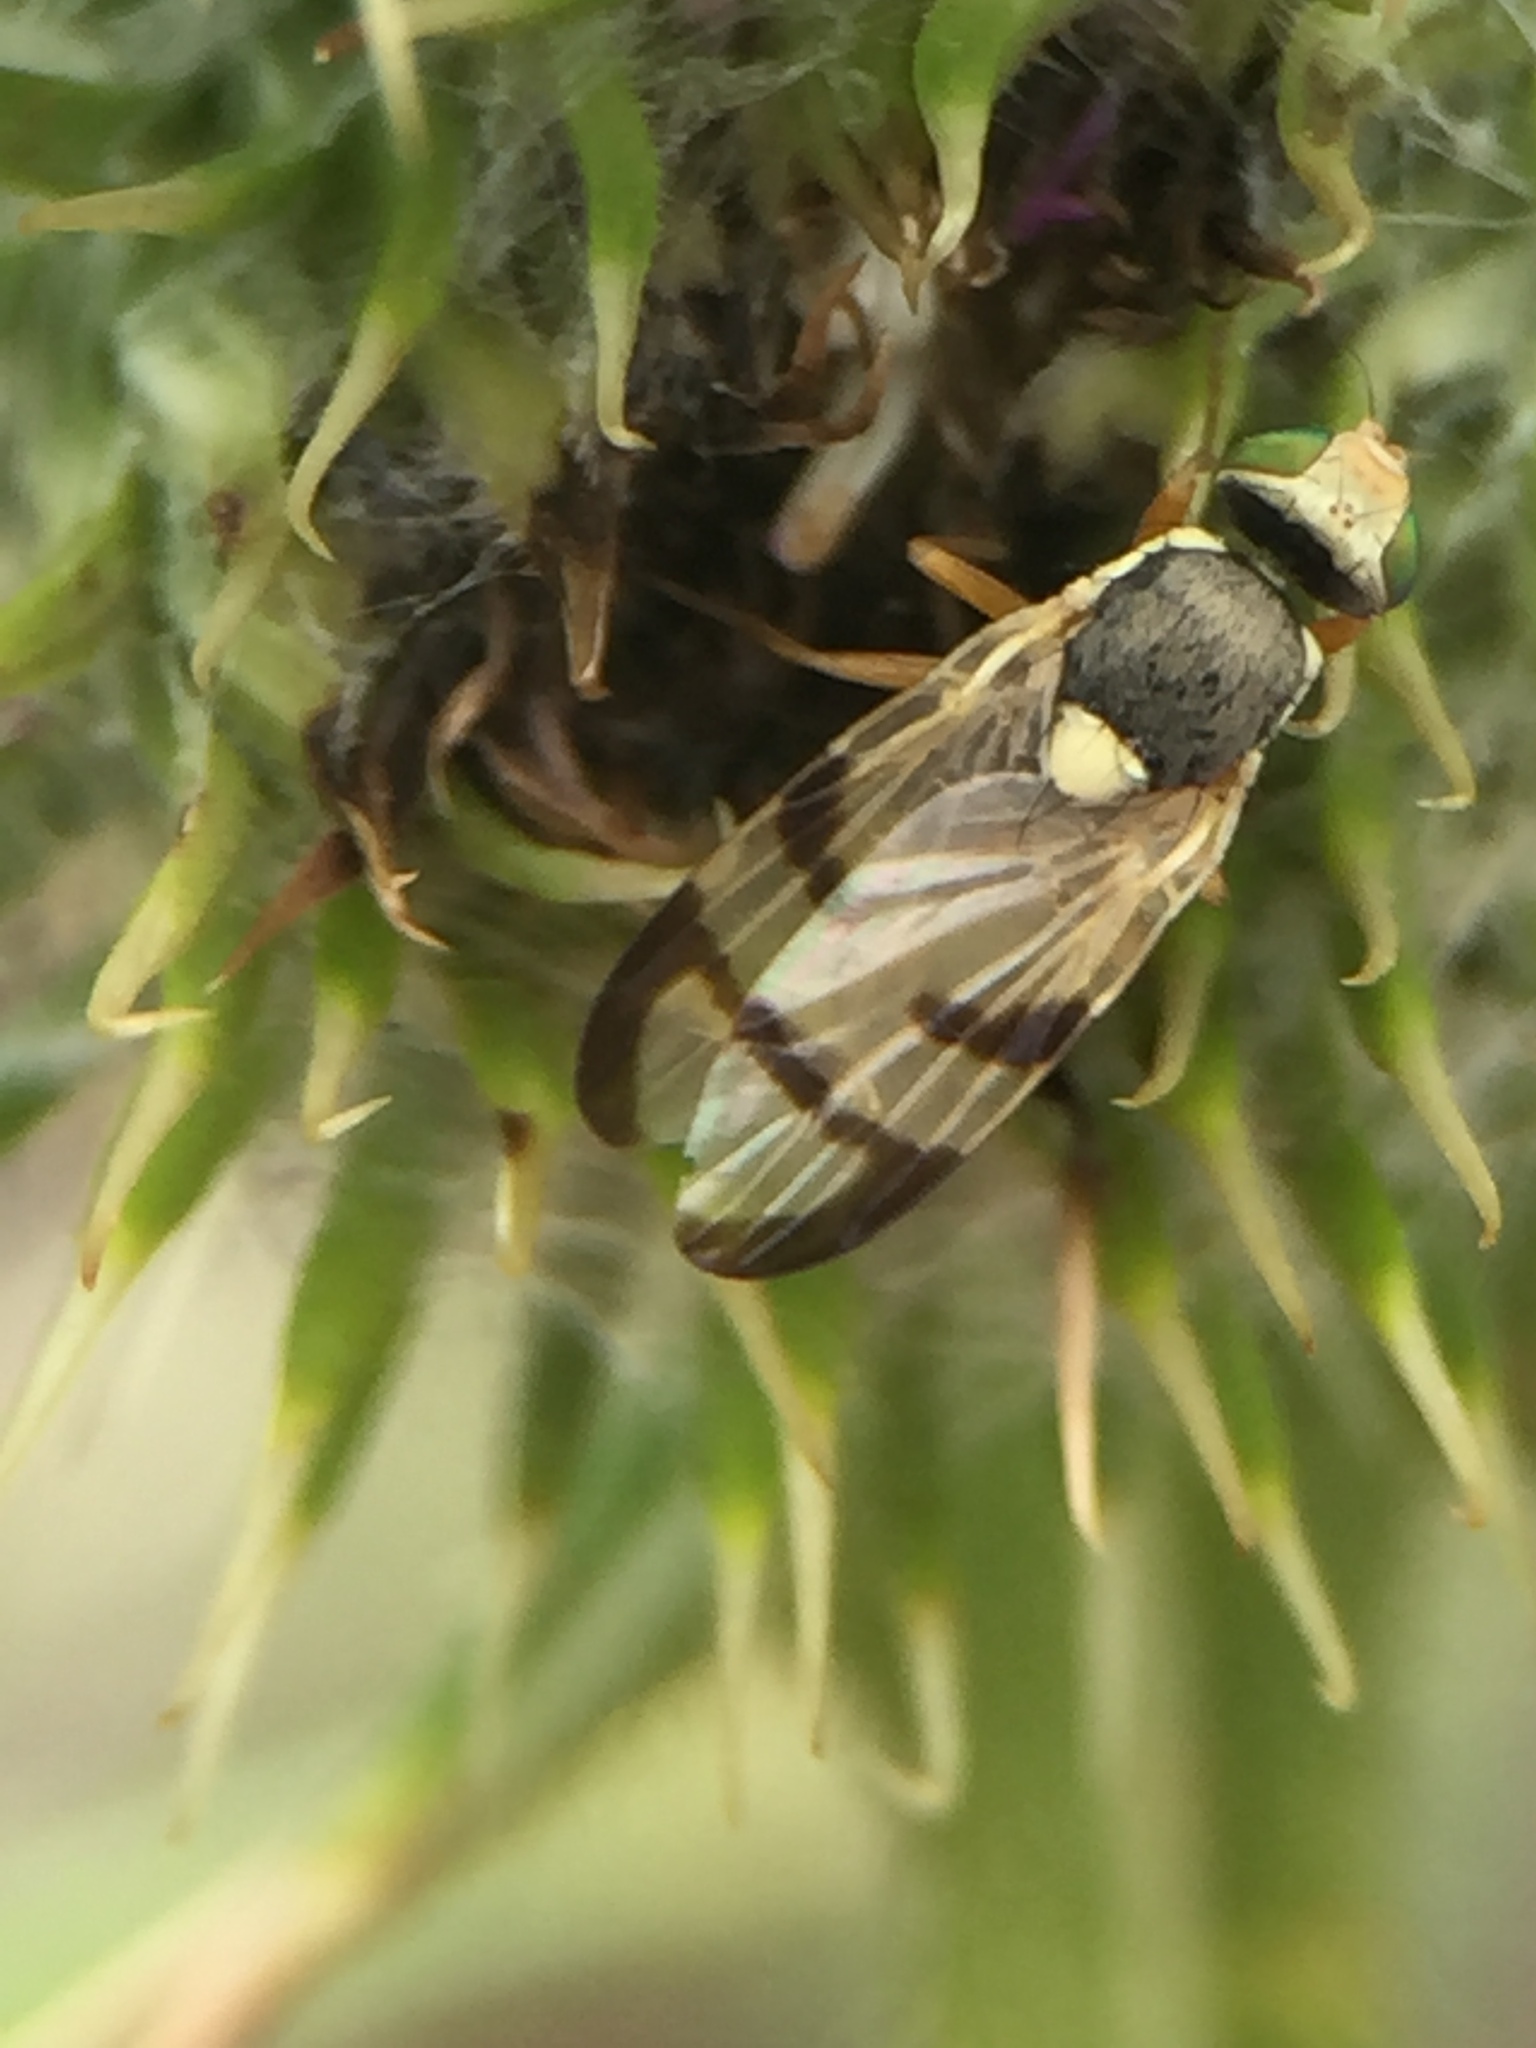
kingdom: Animalia
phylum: Arthropoda
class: Insecta
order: Diptera
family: Tephritidae
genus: Urophora
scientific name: Urophora stylata
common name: Fruit fly
